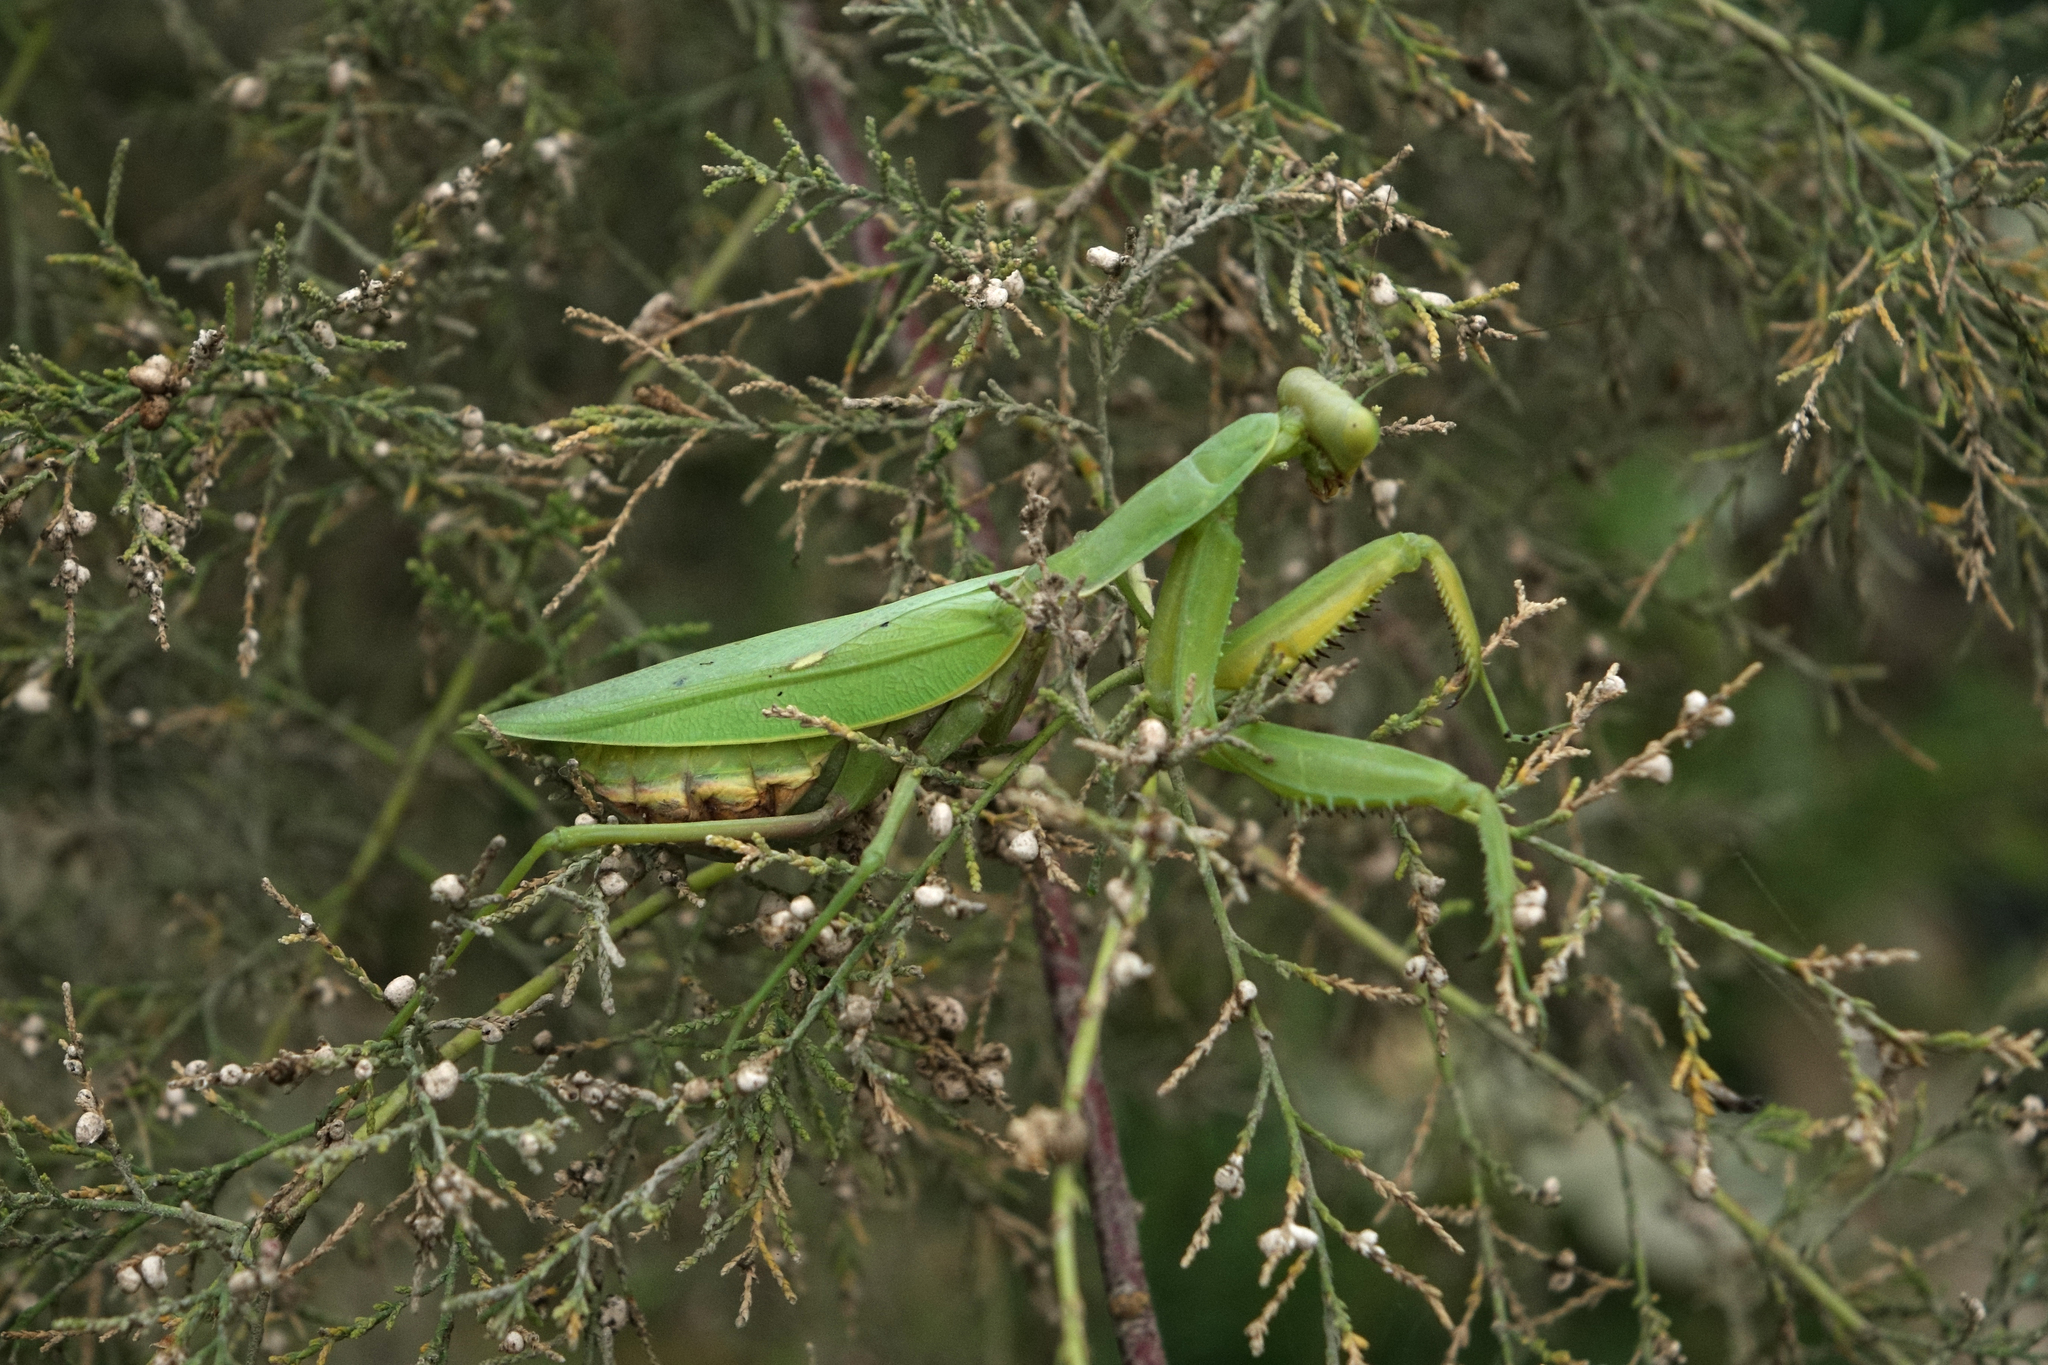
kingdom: Animalia
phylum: Arthropoda
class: Insecta
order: Mantodea
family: Mantidae
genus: Hierodula
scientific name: Hierodula transcaucasica
